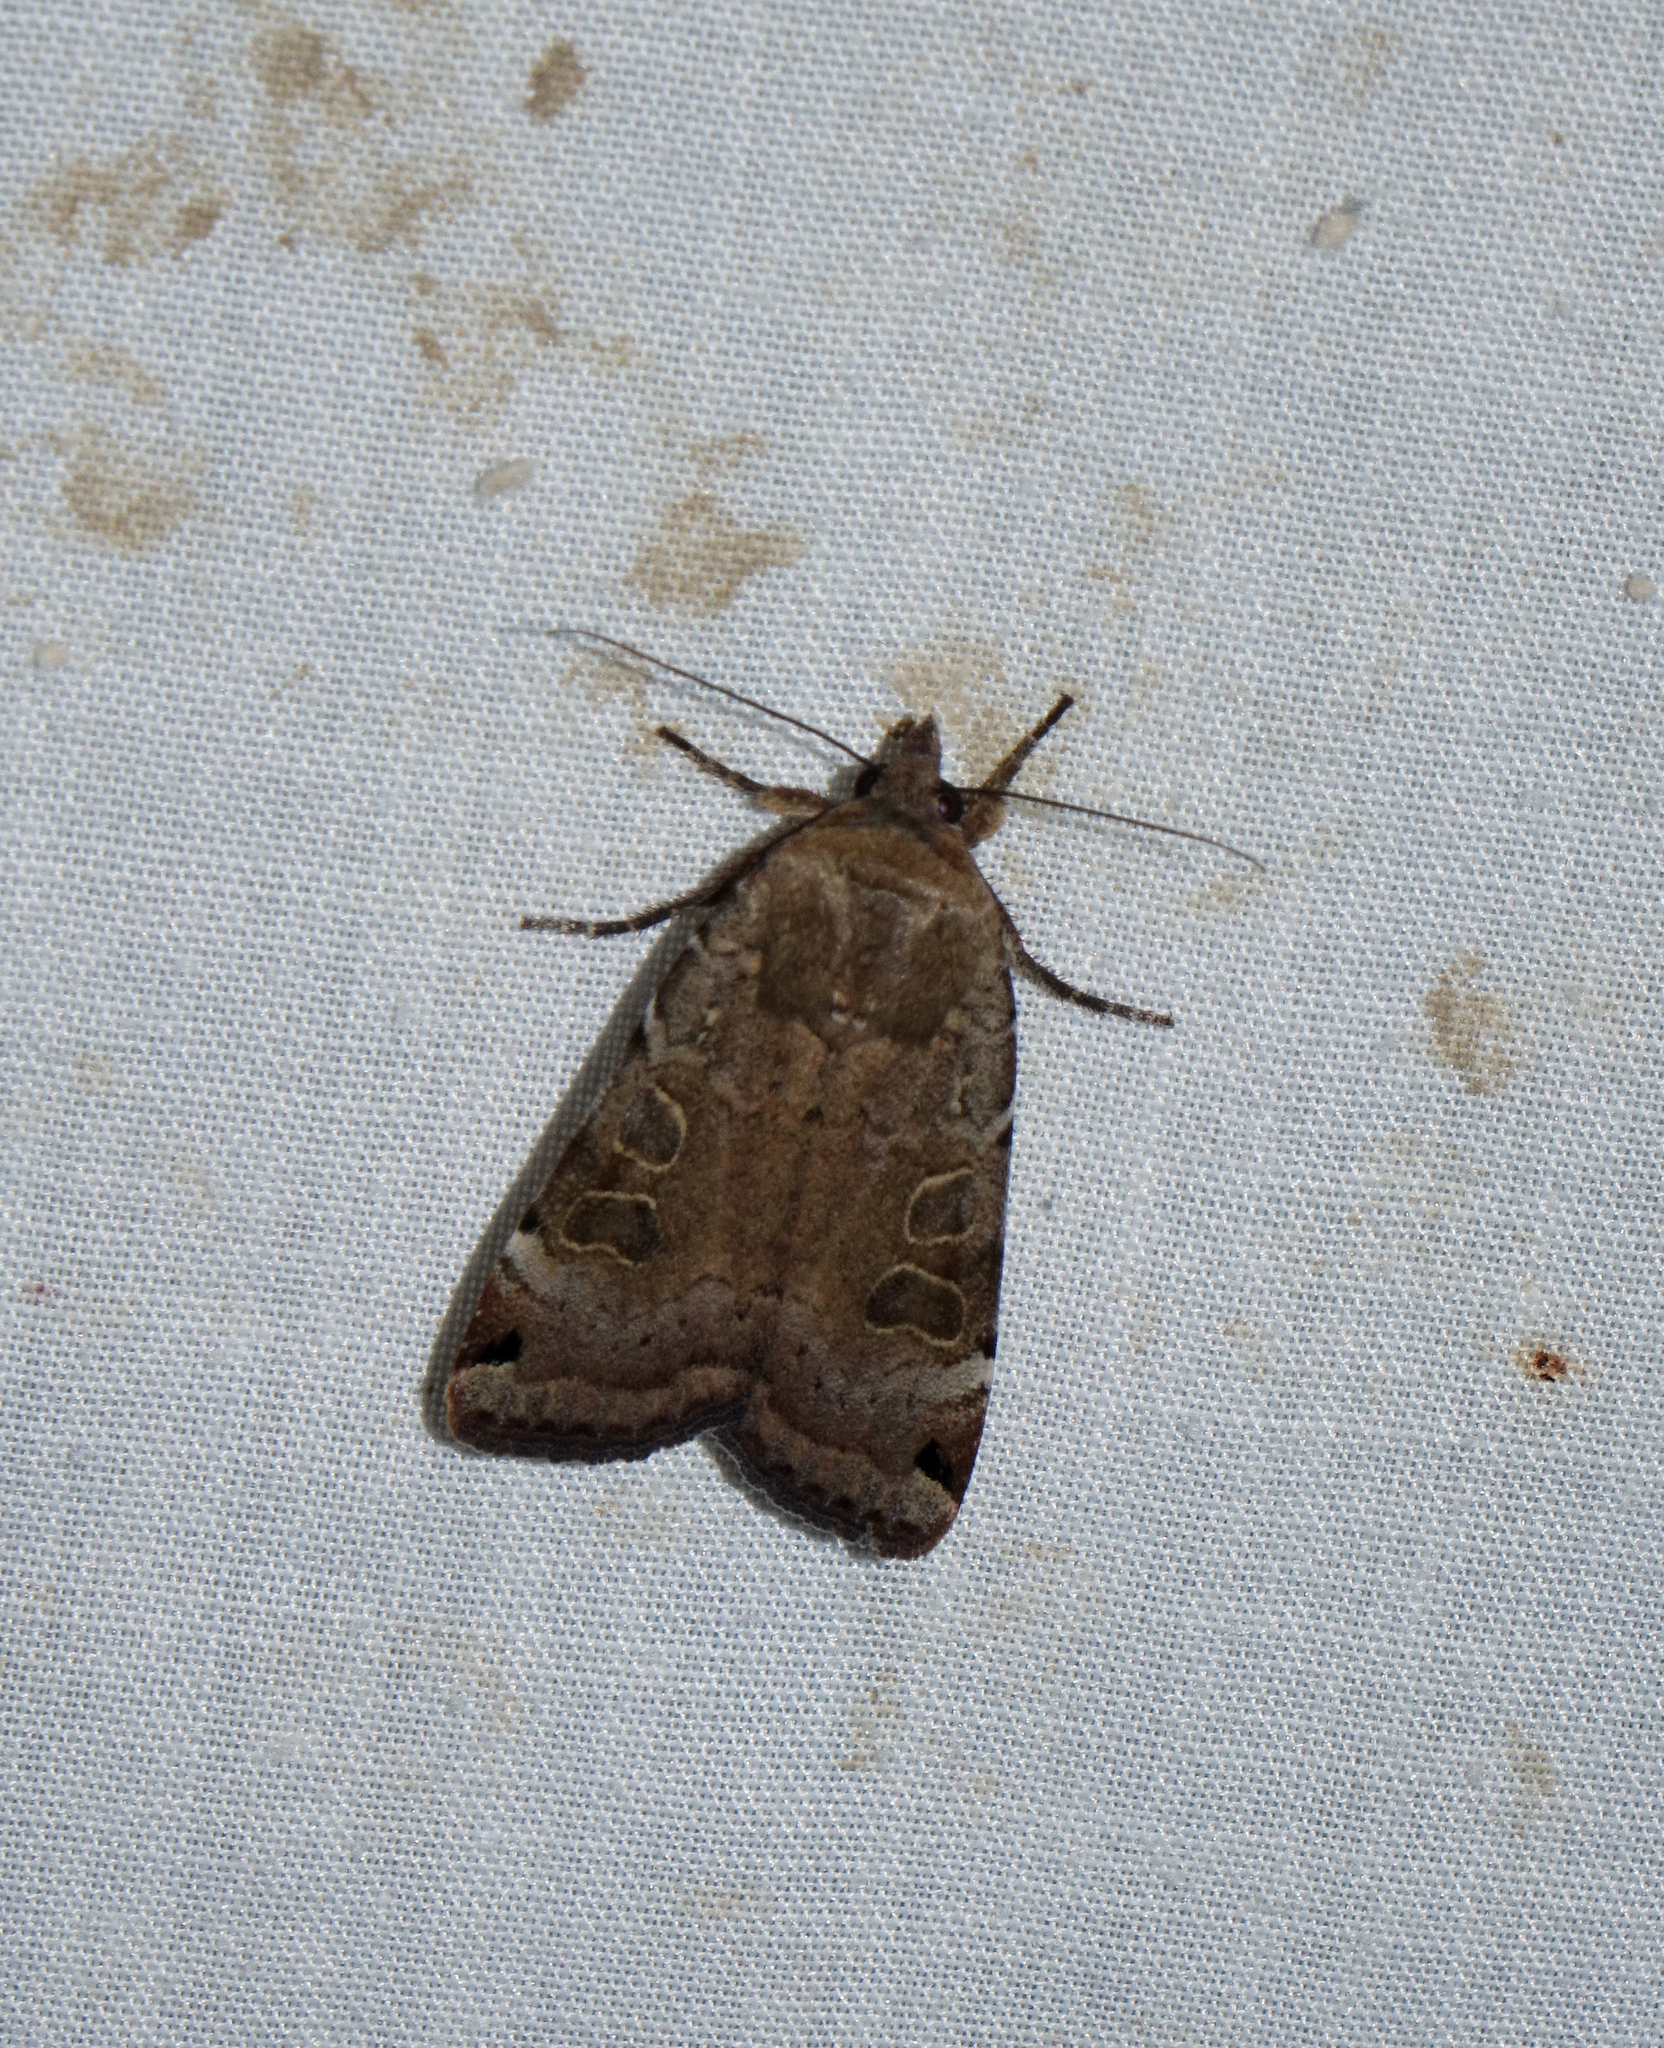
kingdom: Animalia
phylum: Arthropoda
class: Insecta
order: Lepidoptera
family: Noctuidae
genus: Noctua
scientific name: Noctua orbona
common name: Lunar yellow underwing
